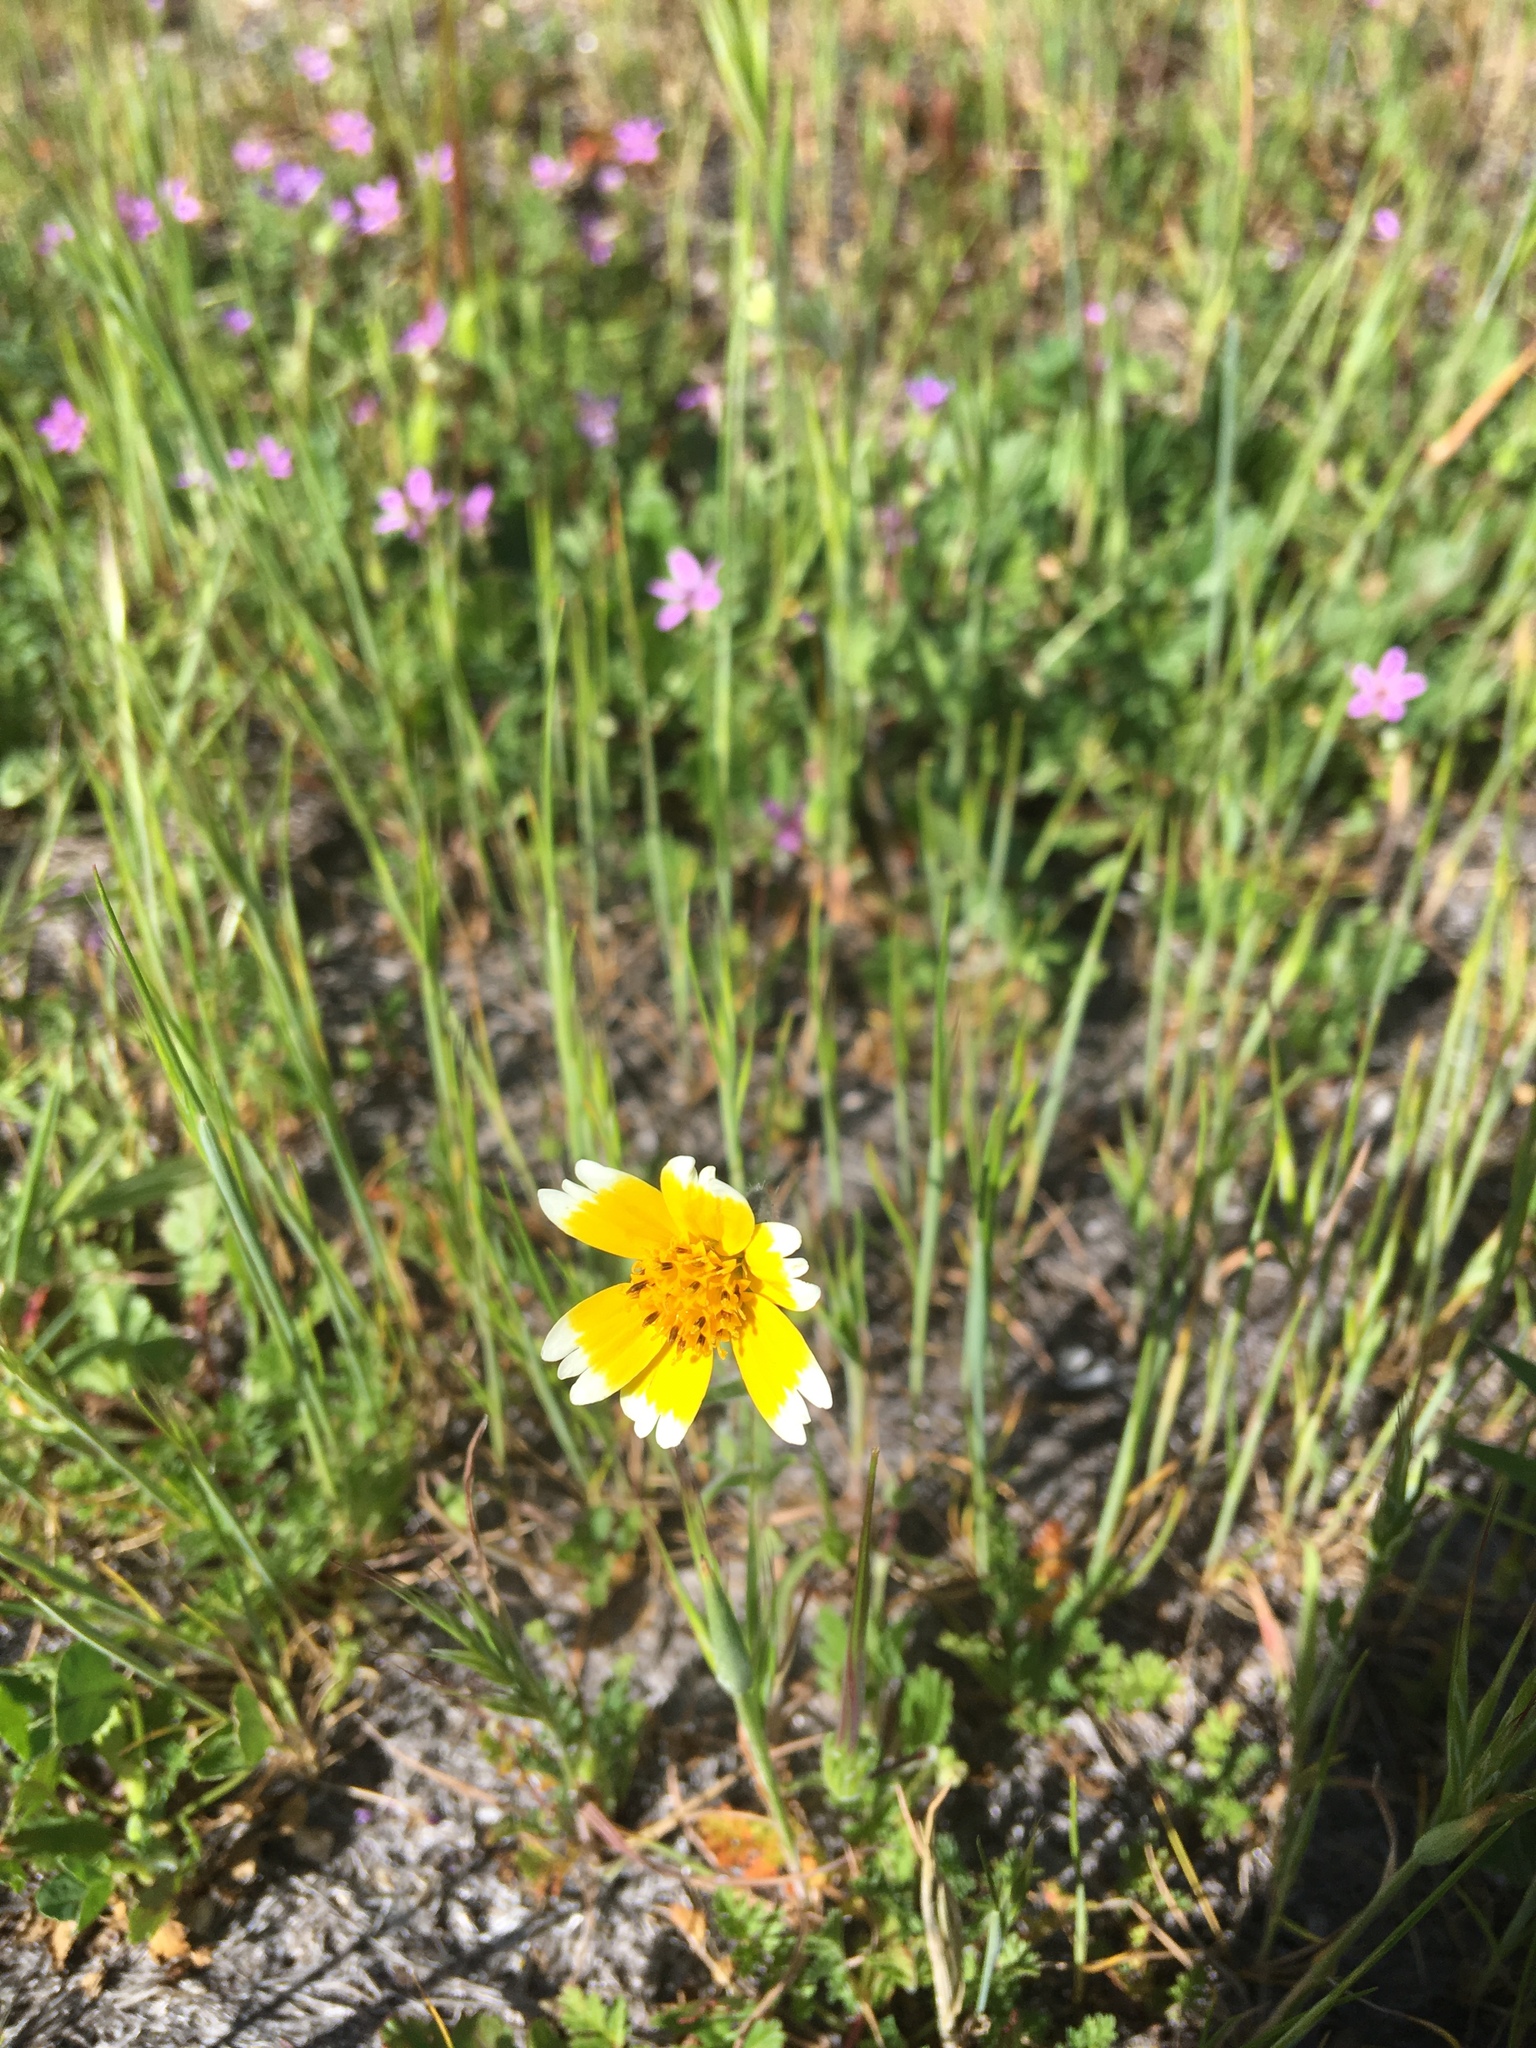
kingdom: Plantae
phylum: Tracheophyta
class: Magnoliopsida
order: Asterales
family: Asteraceae
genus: Layia
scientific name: Layia platyglossa
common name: Tidy-tips
